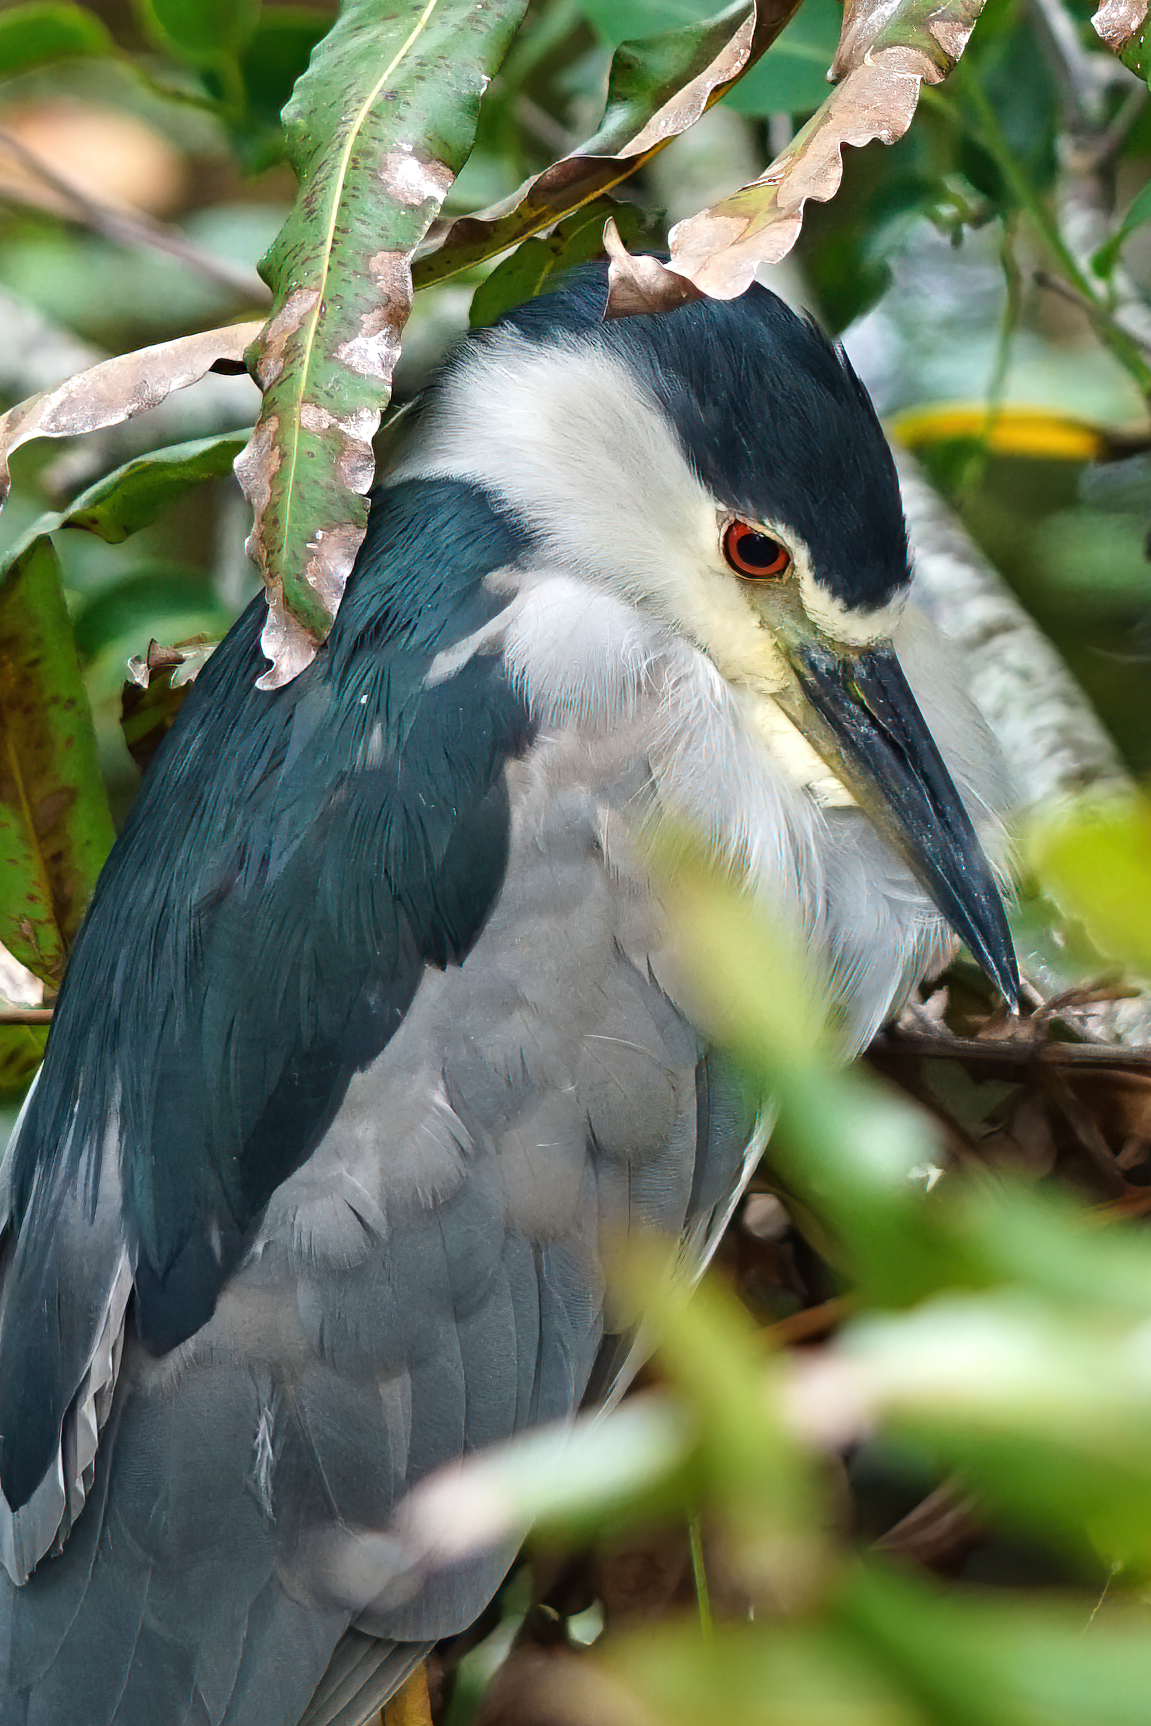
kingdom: Animalia
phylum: Chordata
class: Aves
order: Pelecaniformes
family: Ardeidae
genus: Nycticorax
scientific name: Nycticorax nycticorax
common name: Black-crowned night heron
